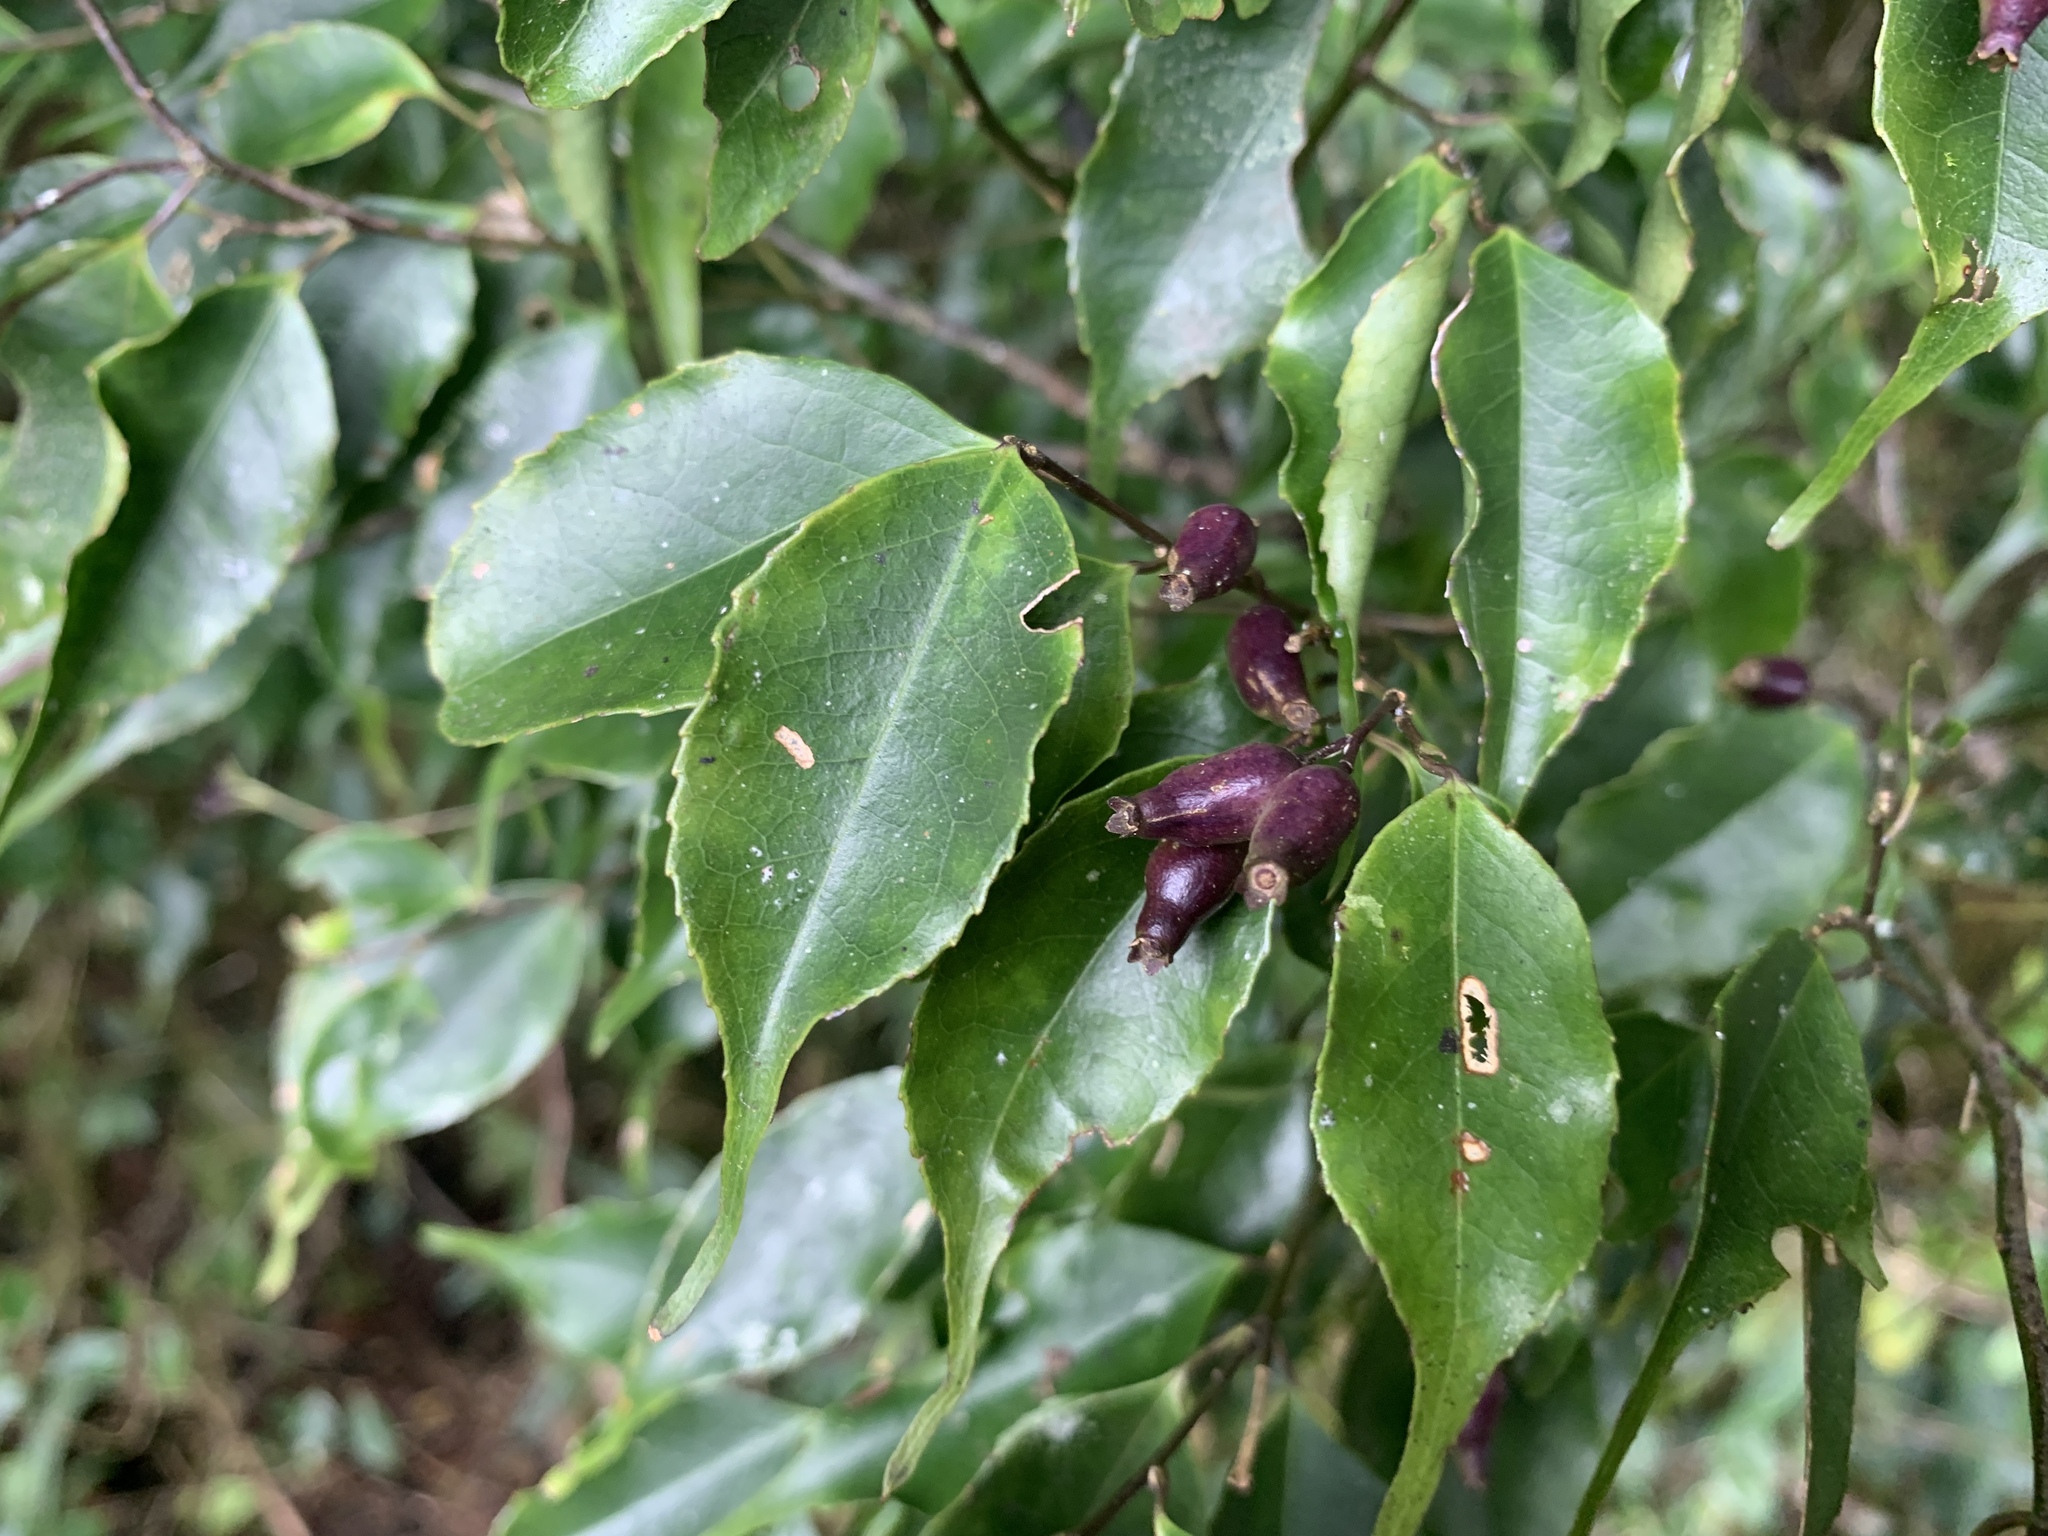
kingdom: Plantae
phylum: Tracheophyta
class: Magnoliopsida
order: Ericales
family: Symplocaceae
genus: Symplocos
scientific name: Symplocos sumuntia
